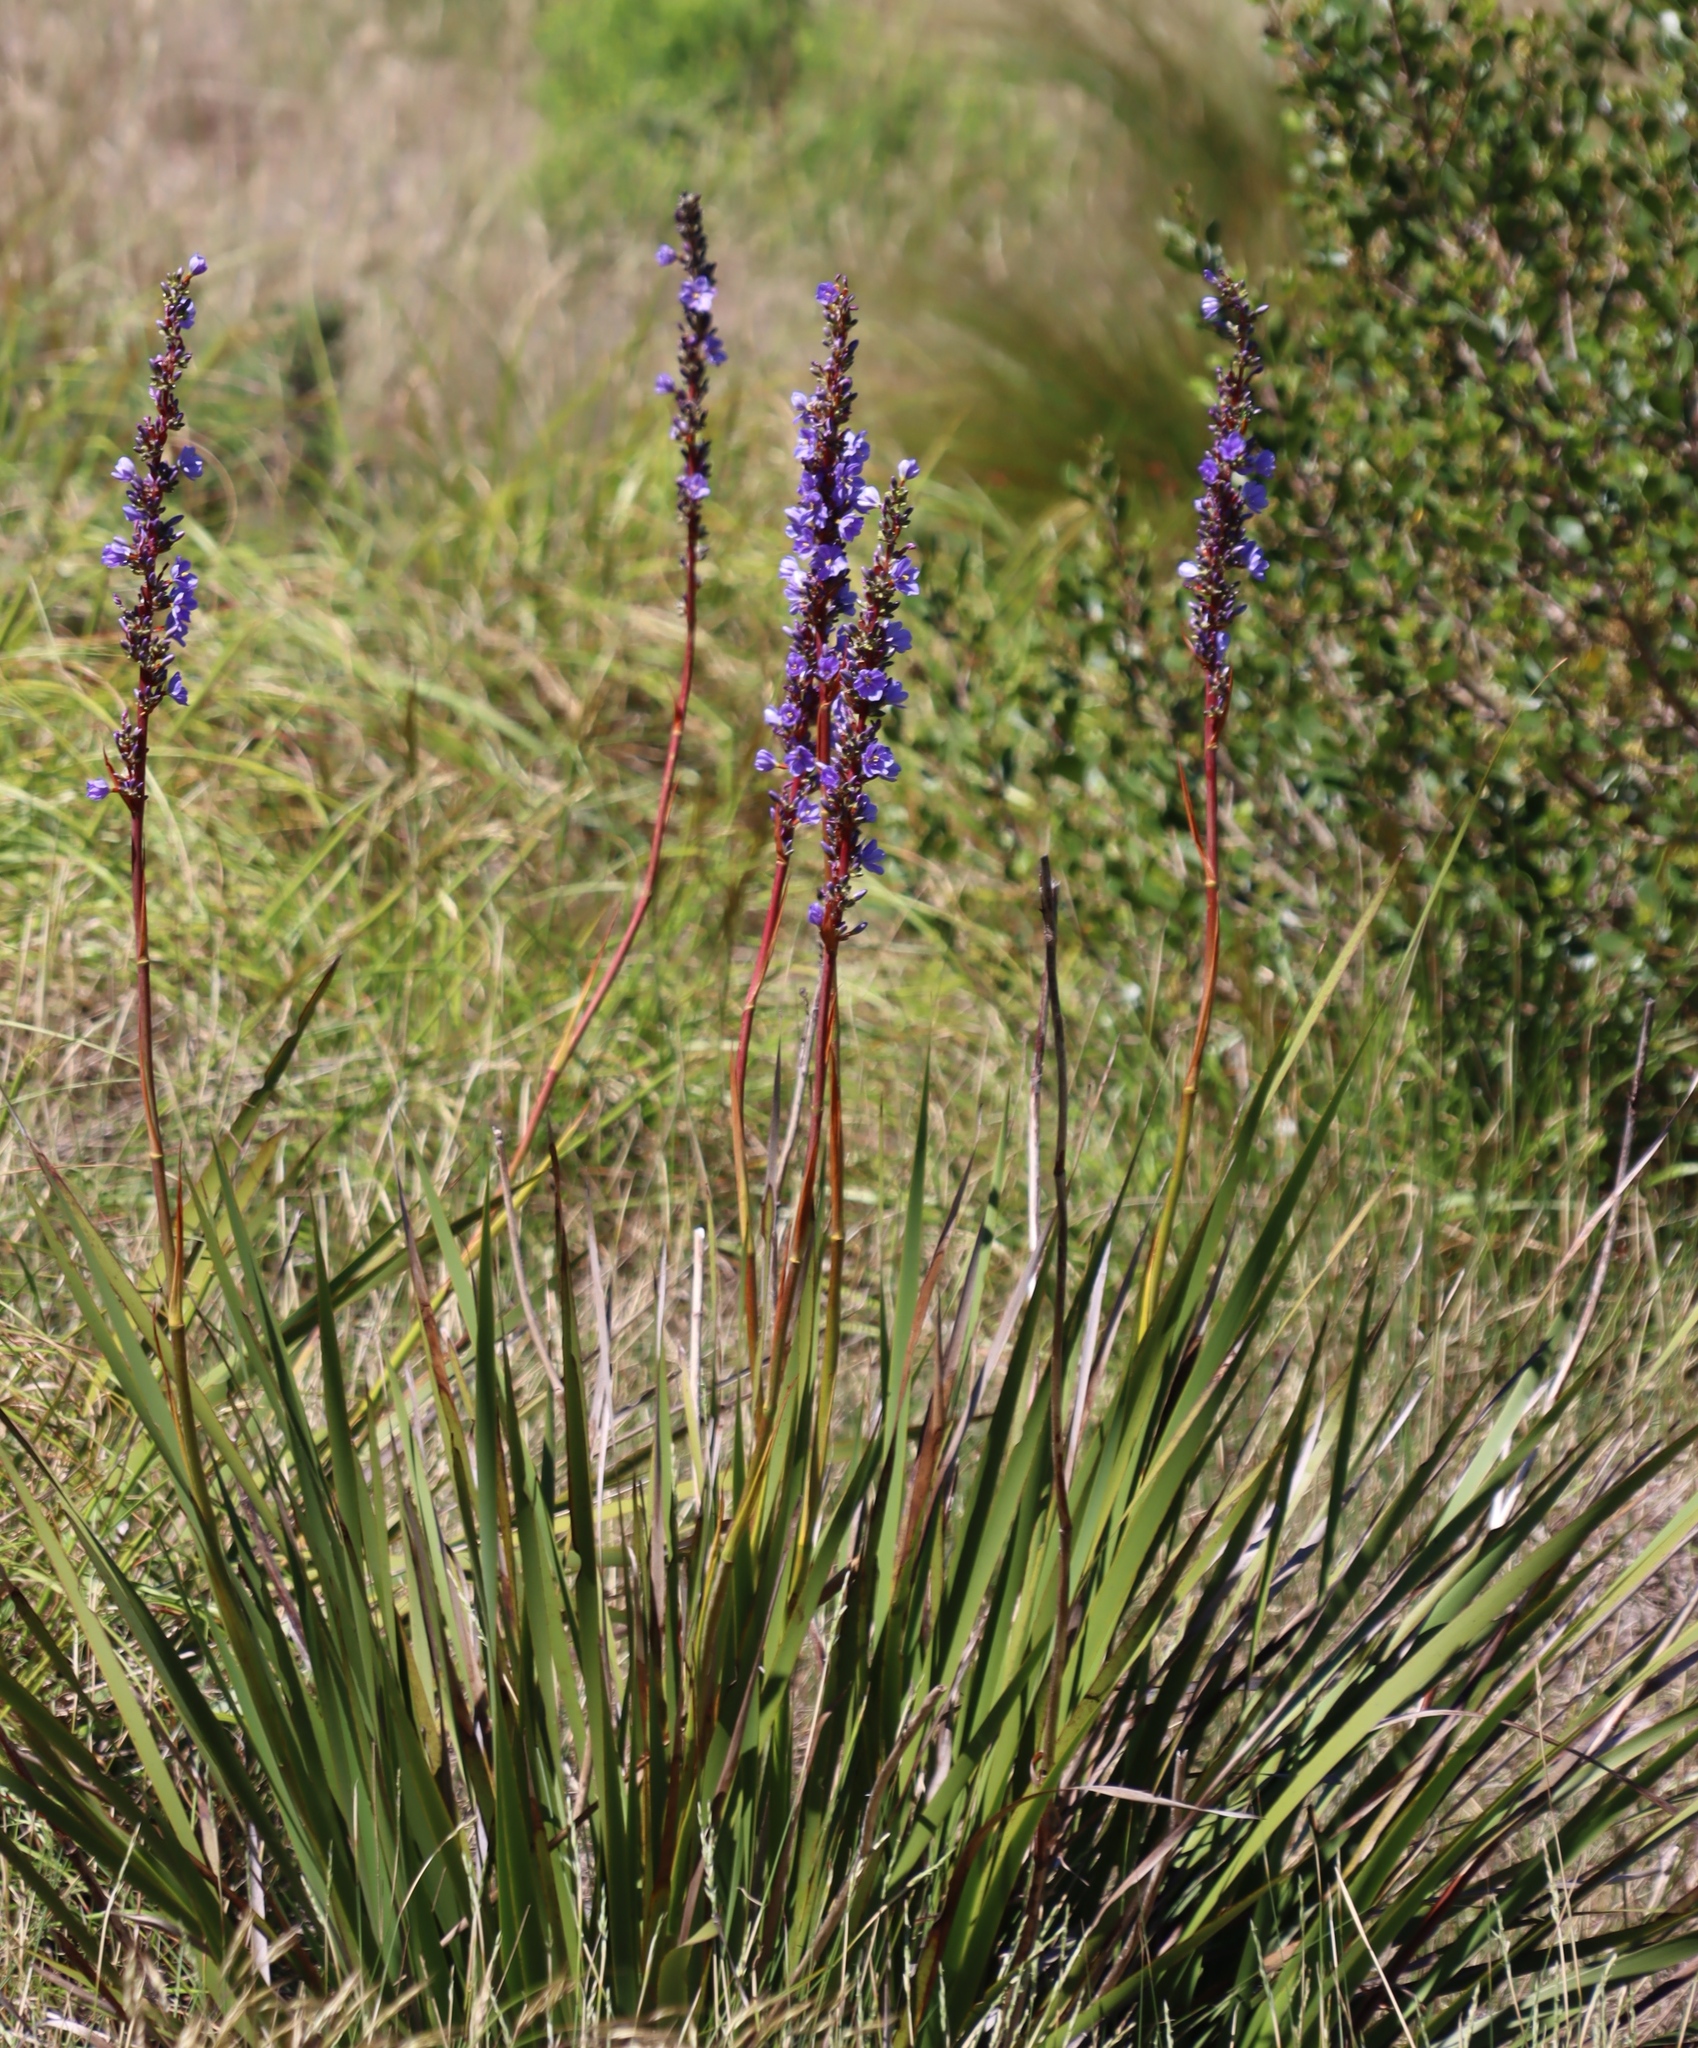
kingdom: Plantae
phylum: Tracheophyta
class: Liliopsida
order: Asparagales
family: Iridaceae
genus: Aristea
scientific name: Aristea capitata
